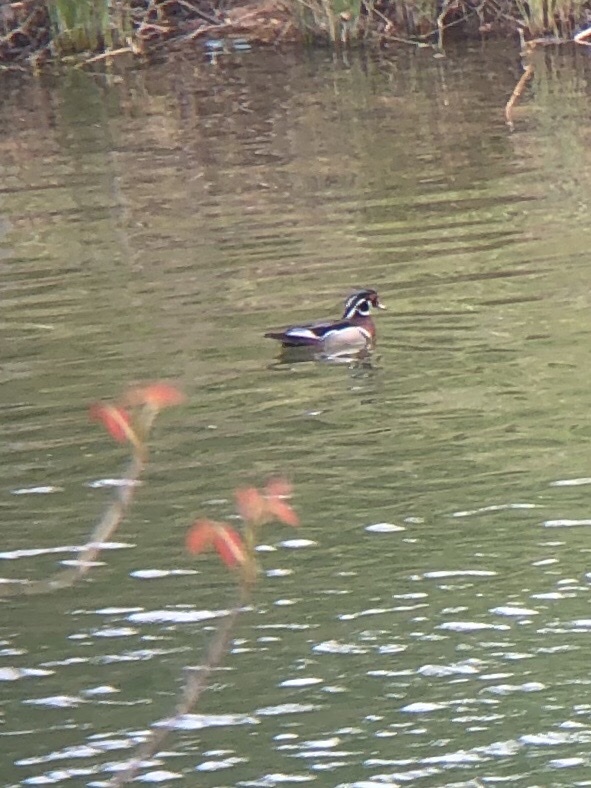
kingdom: Animalia
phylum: Chordata
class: Aves
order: Anseriformes
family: Anatidae
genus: Aix
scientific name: Aix sponsa
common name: Wood duck
